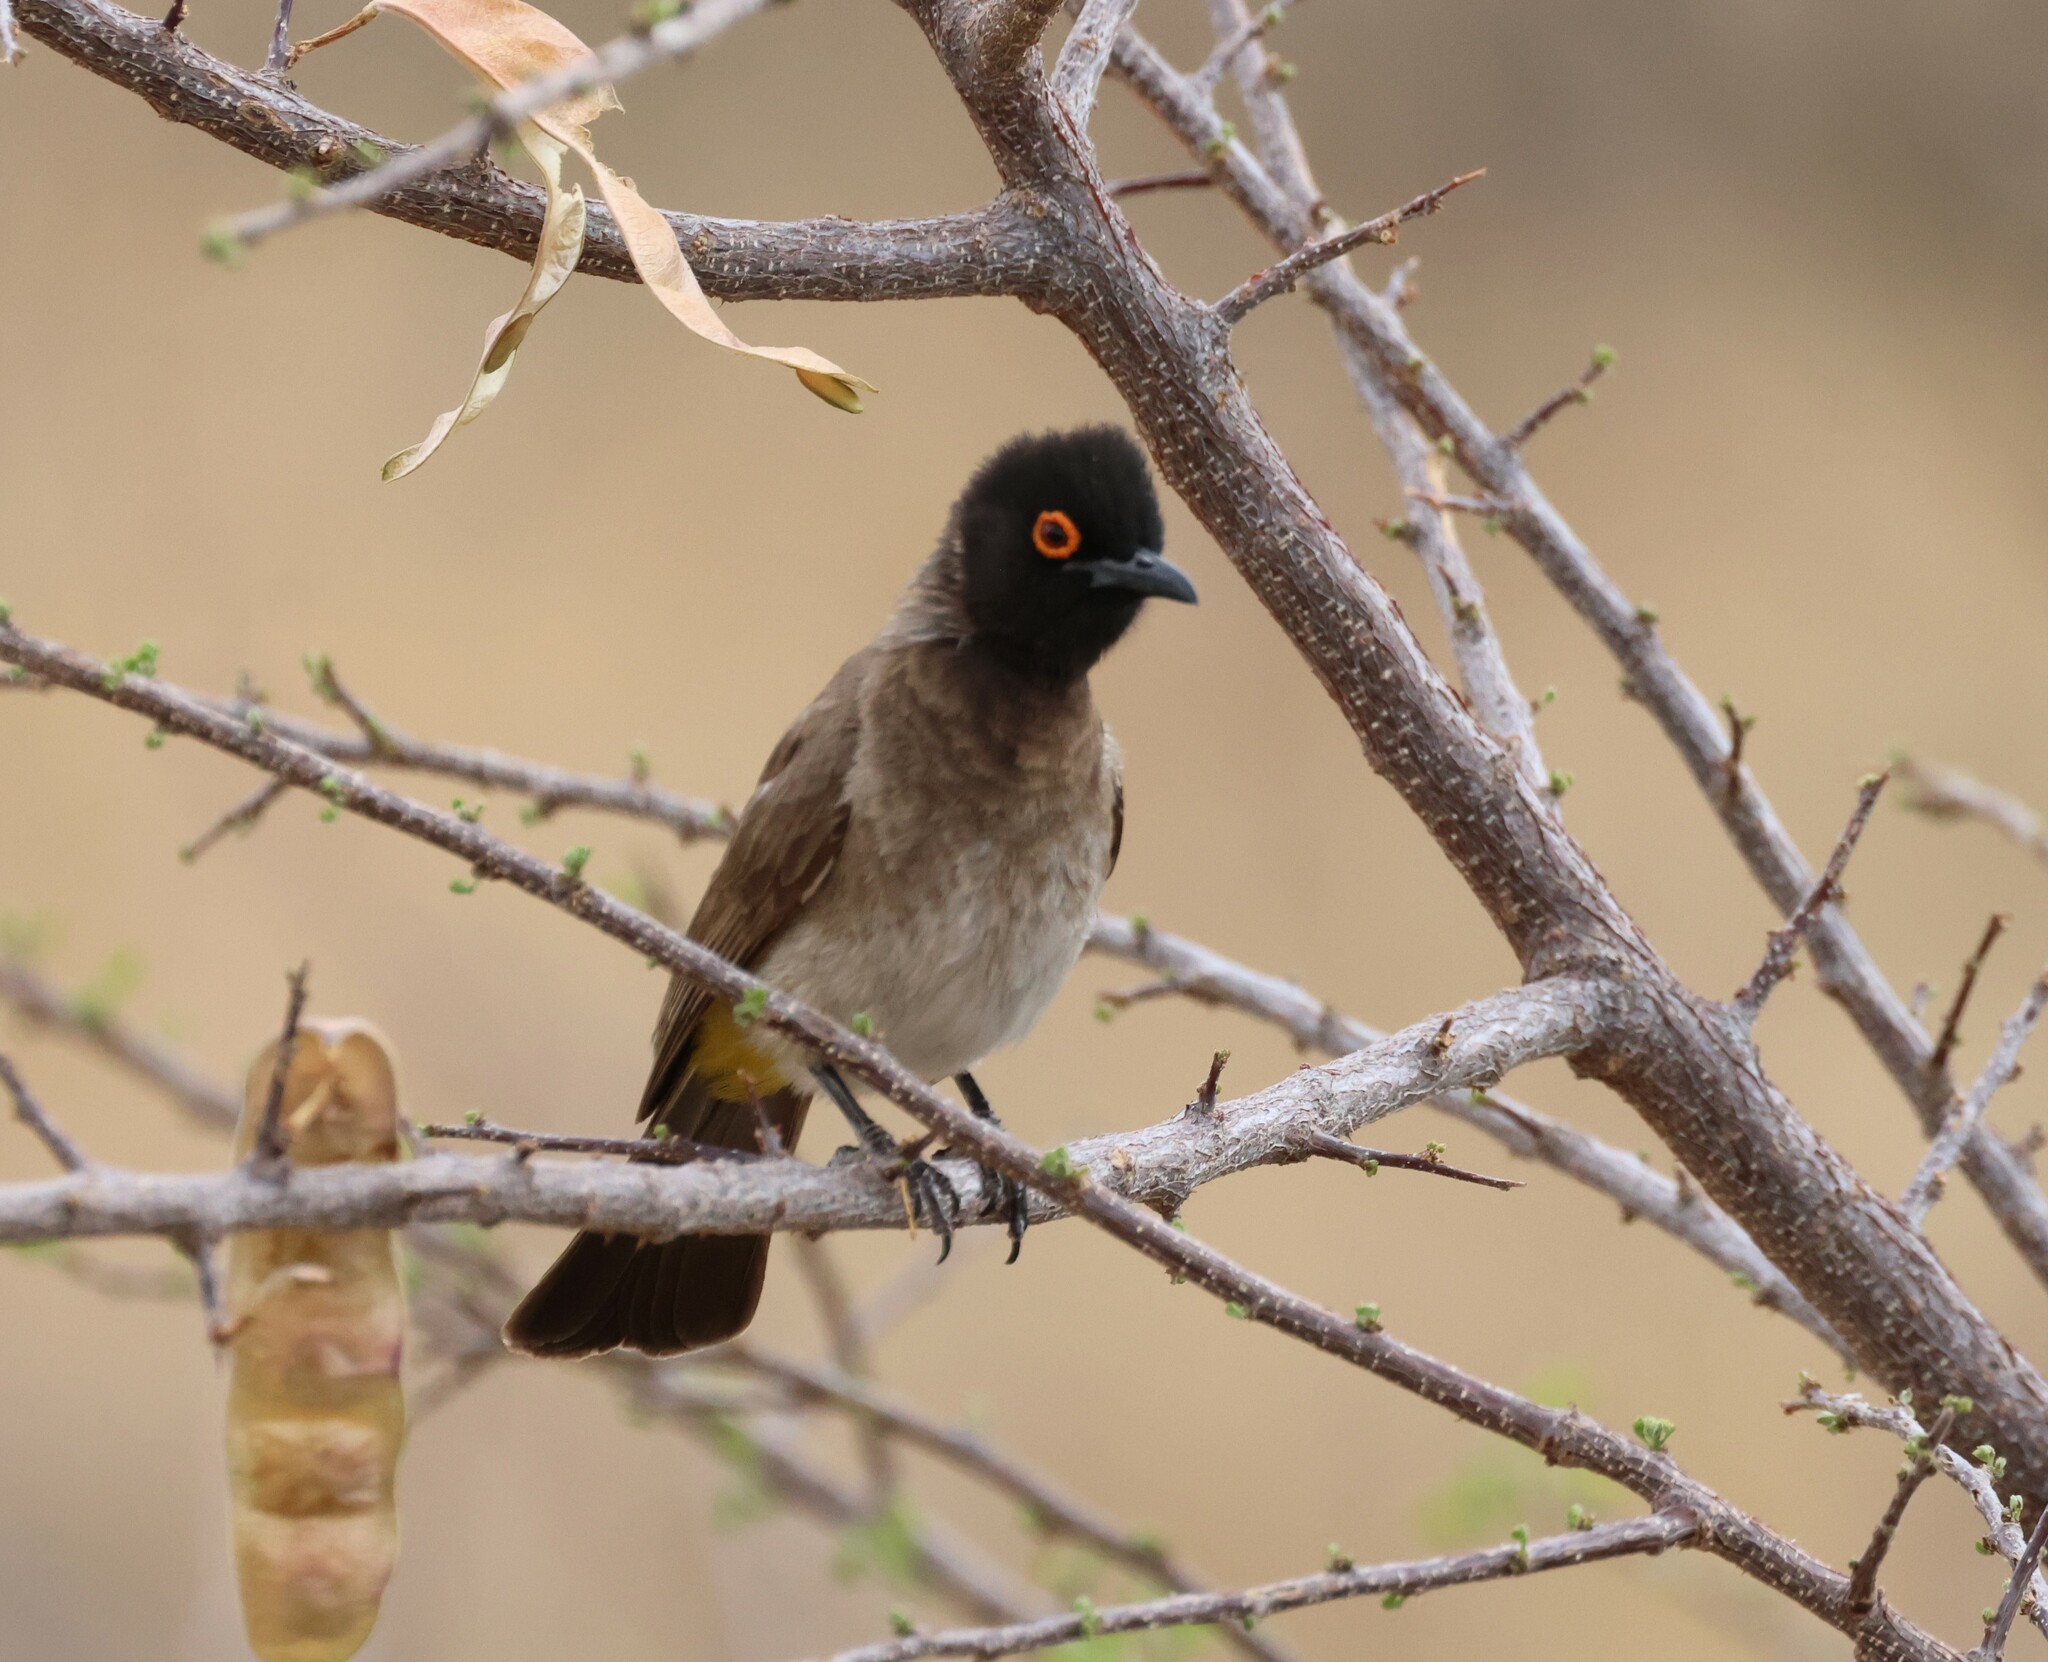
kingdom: Animalia
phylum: Chordata
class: Aves
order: Passeriformes
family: Pycnonotidae
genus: Pycnonotus
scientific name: Pycnonotus nigricans
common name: African red-eyed bulbul
